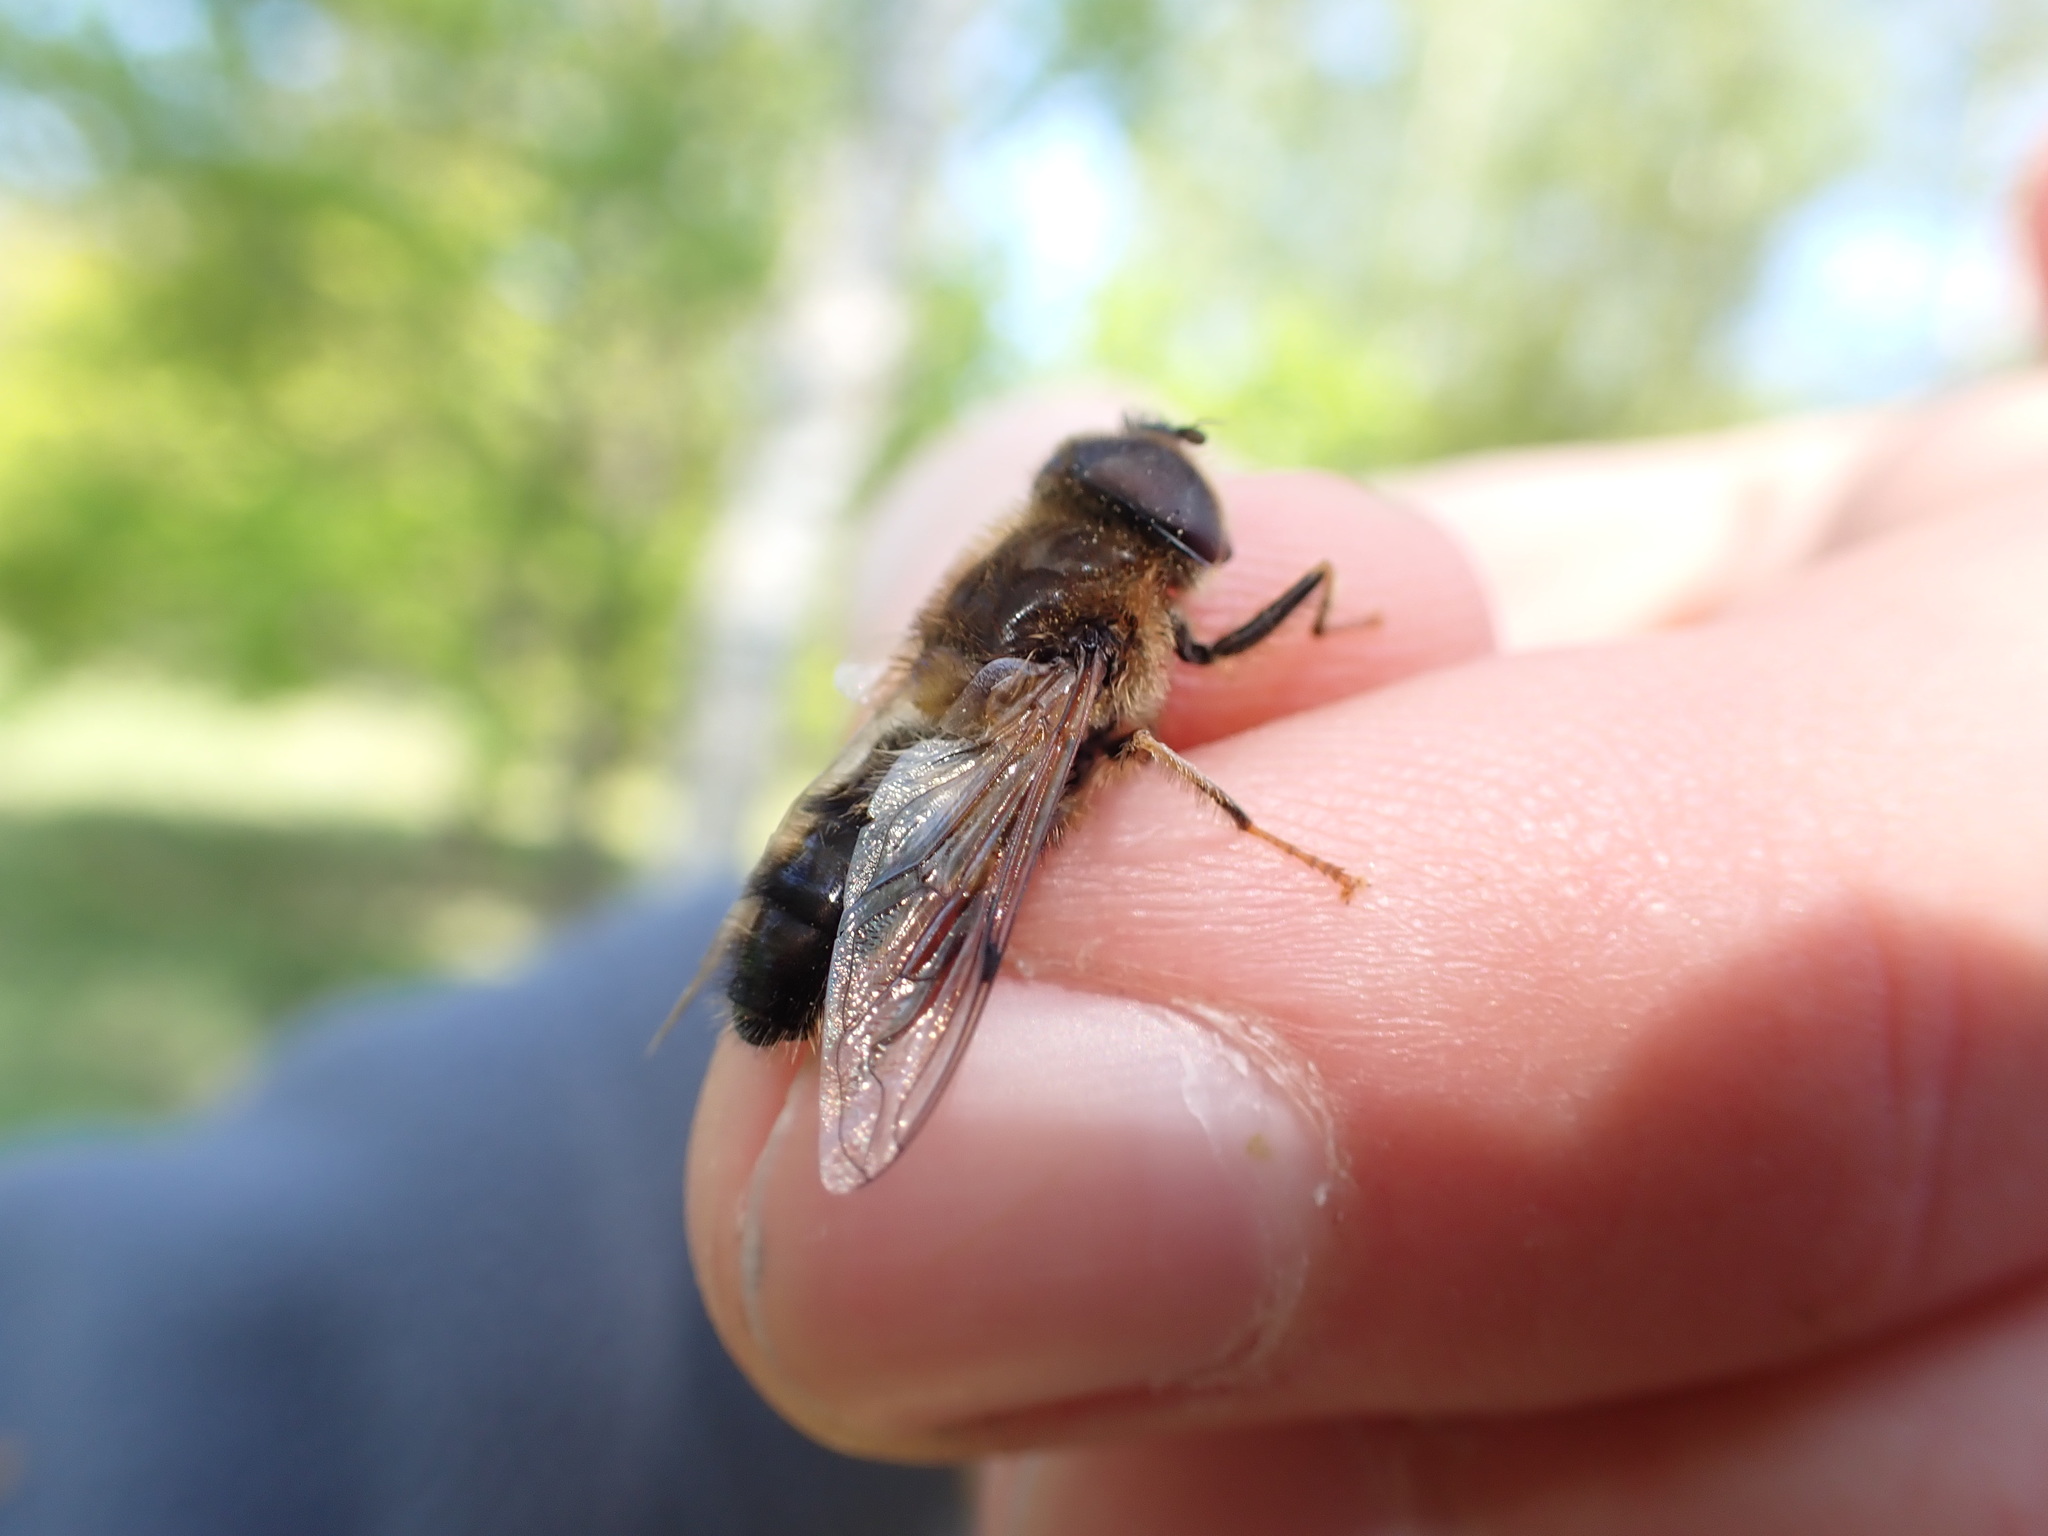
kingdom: Animalia
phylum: Arthropoda
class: Insecta
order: Diptera
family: Syrphidae
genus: Eristalis
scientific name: Eristalis pertinax
